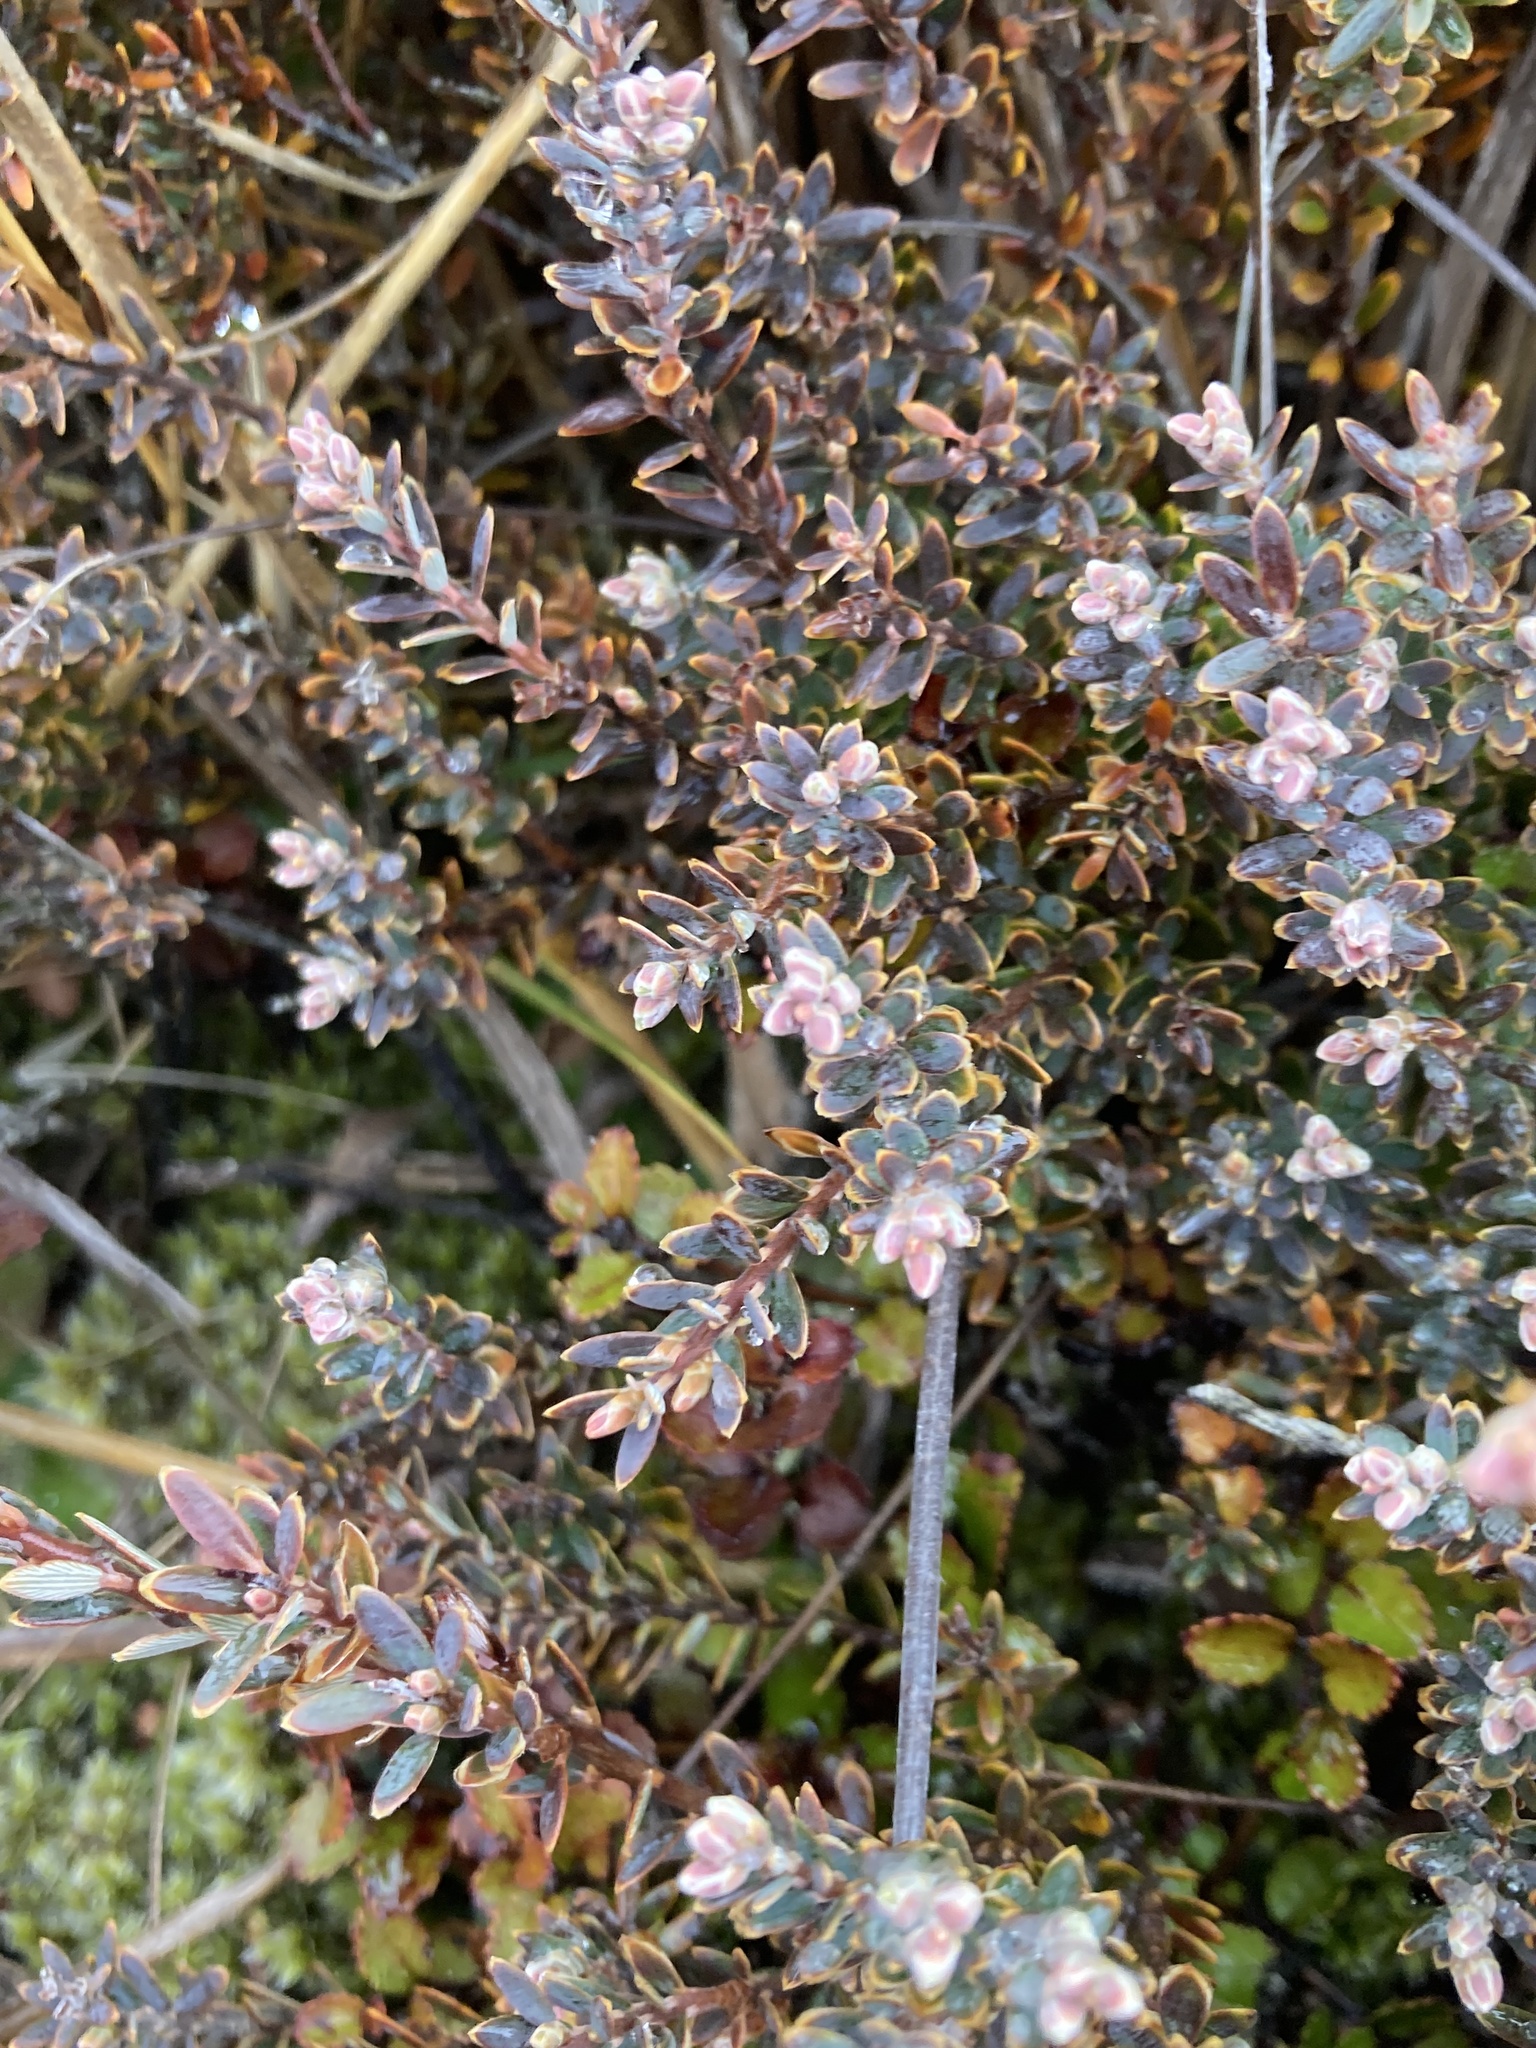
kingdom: Plantae
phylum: Tracheophyta
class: Magnoliopsida
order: Ericales
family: Ericaceae
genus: Acrothamnus
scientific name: Acrothamnus colensoi
